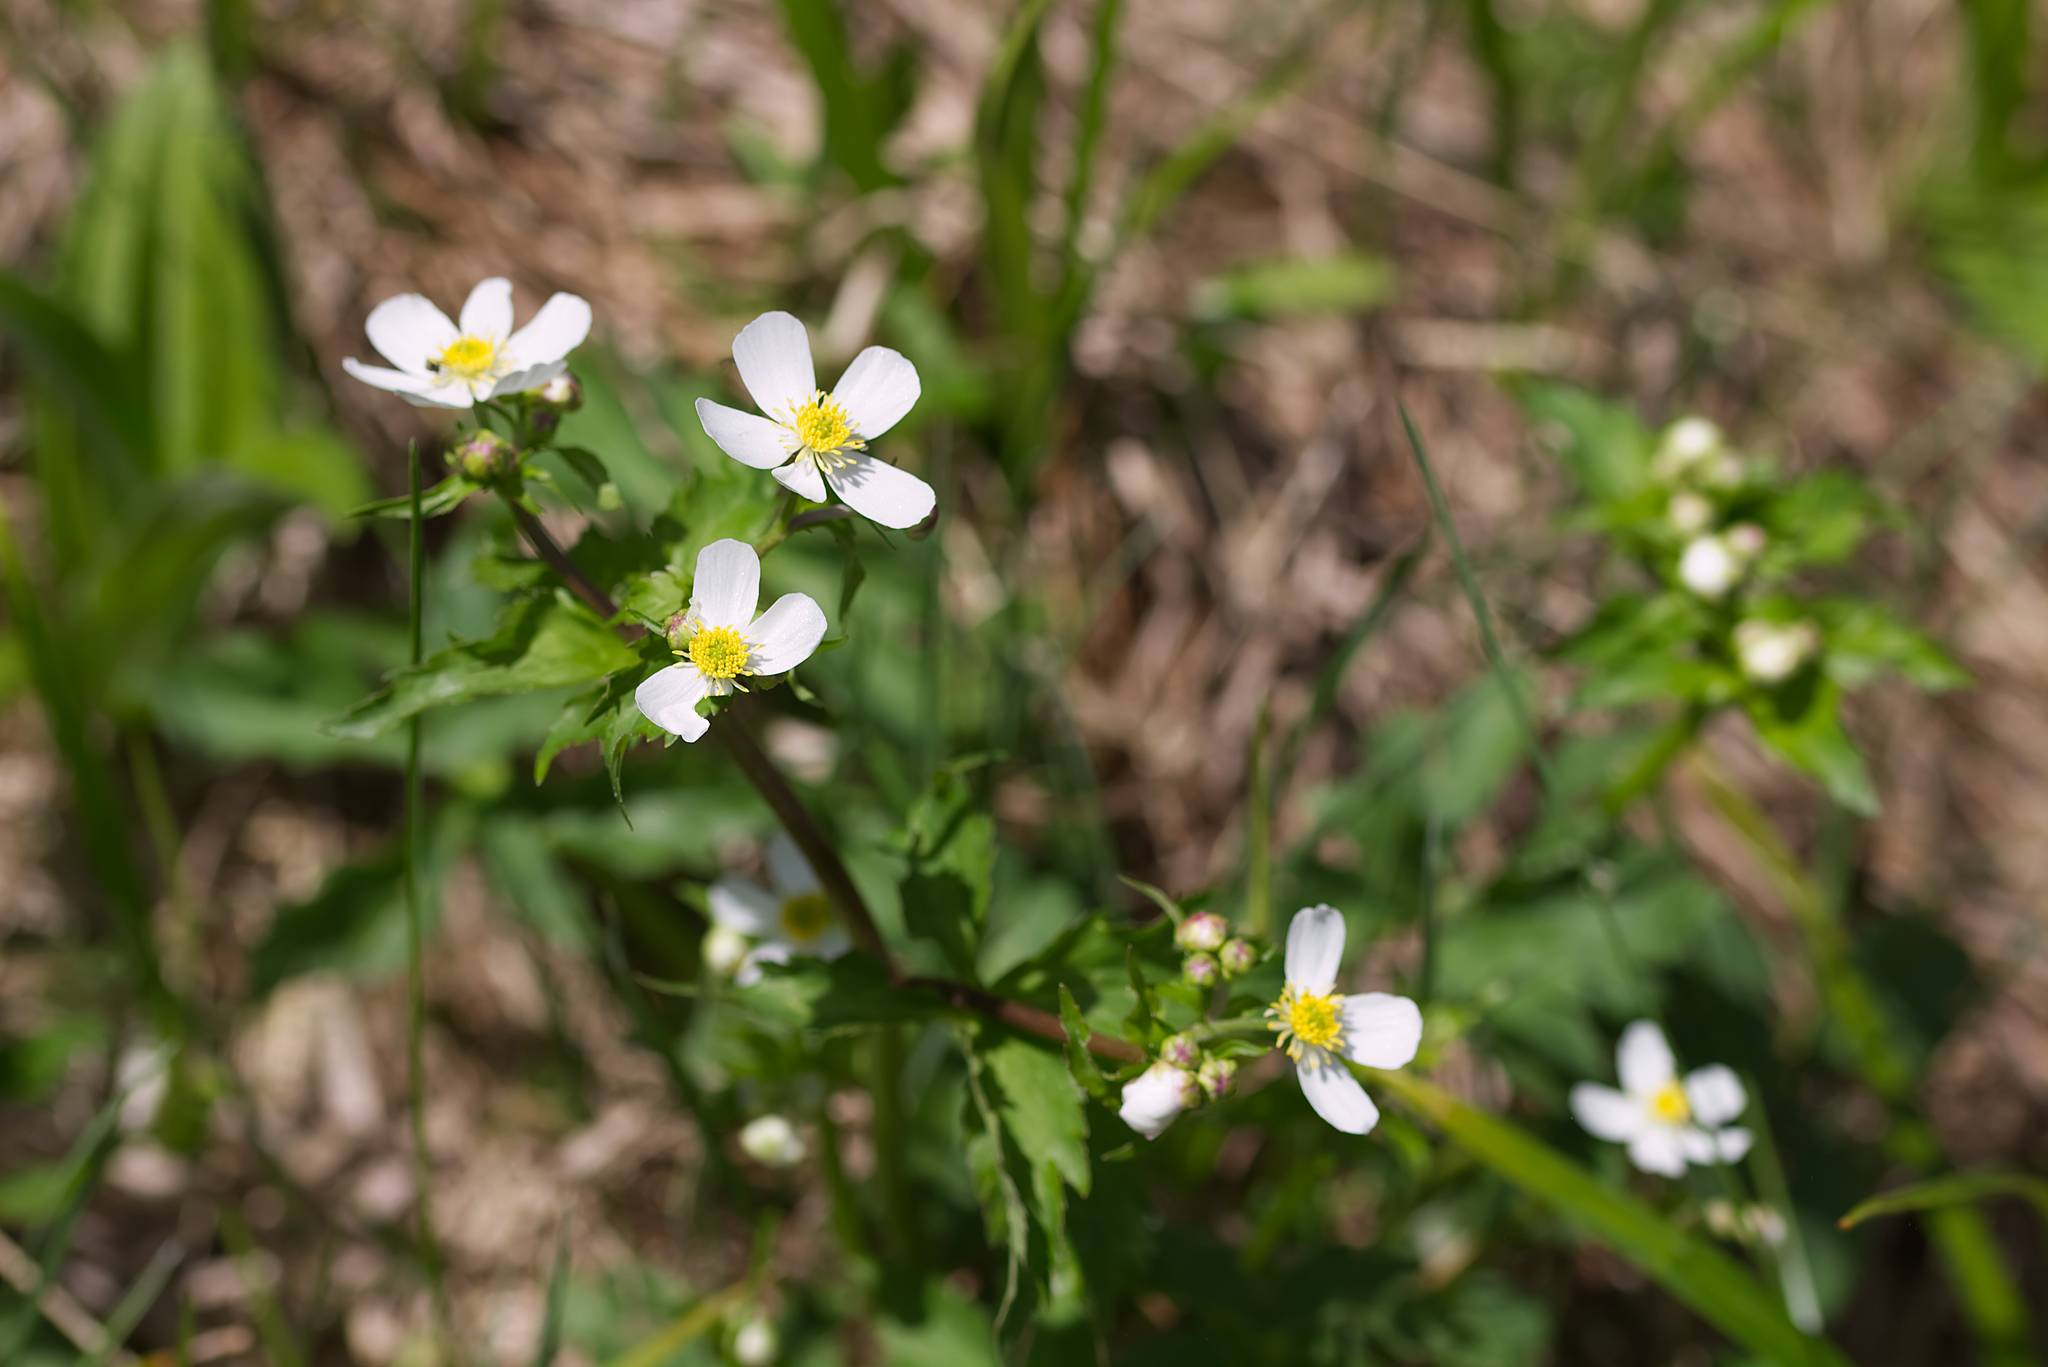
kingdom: Plantae
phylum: Tracheophyta
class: Magnoliopsida
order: Ranunculales
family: Ranunculaceae
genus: Ranunculus
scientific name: Ranunculus aconitifolius
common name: Aconite-leaved buttercup
